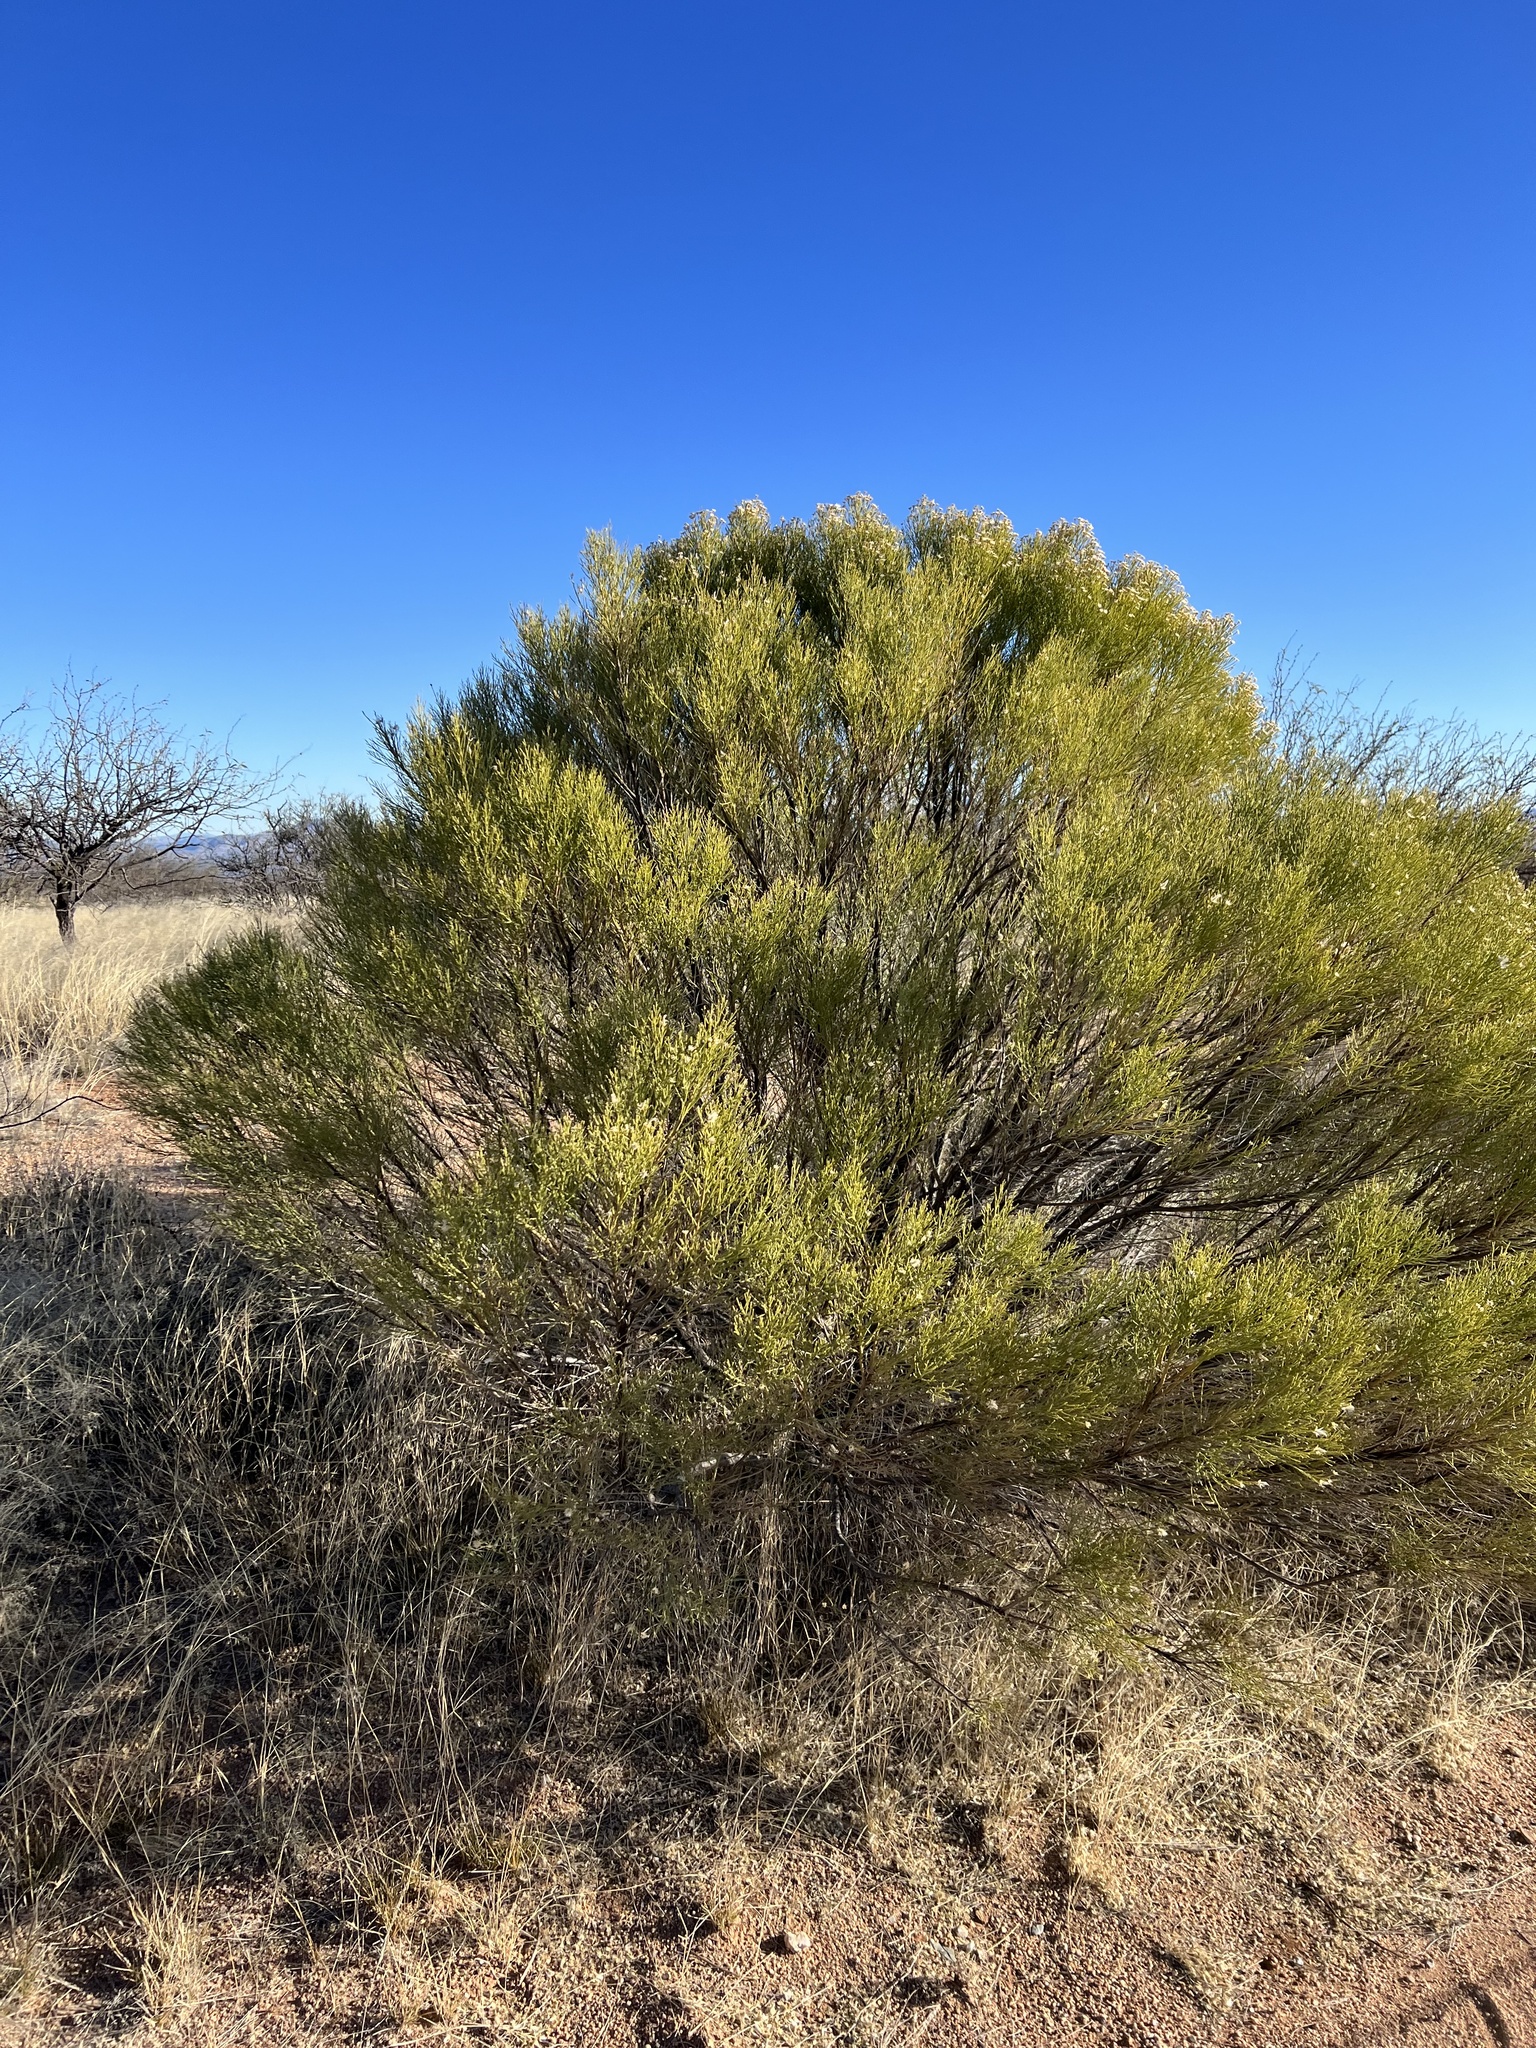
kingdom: Plantae
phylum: Tracheophyta
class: Magnoliopsida
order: Asterales
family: Asteraceae
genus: Baccharis
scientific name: Baccharis sarothroides
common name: Desert-broom
